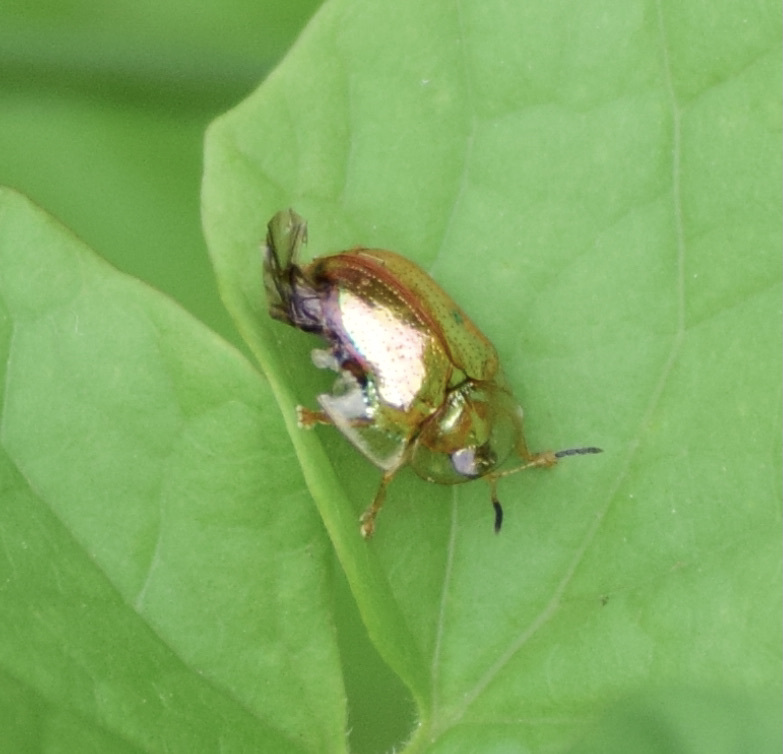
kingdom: Animalia
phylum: Arthropoda
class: Insecta
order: Coleoptera
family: Chrysomelidae
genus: Charidotella
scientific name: Charidotella sexpunctata
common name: Golden tortoise beetle
